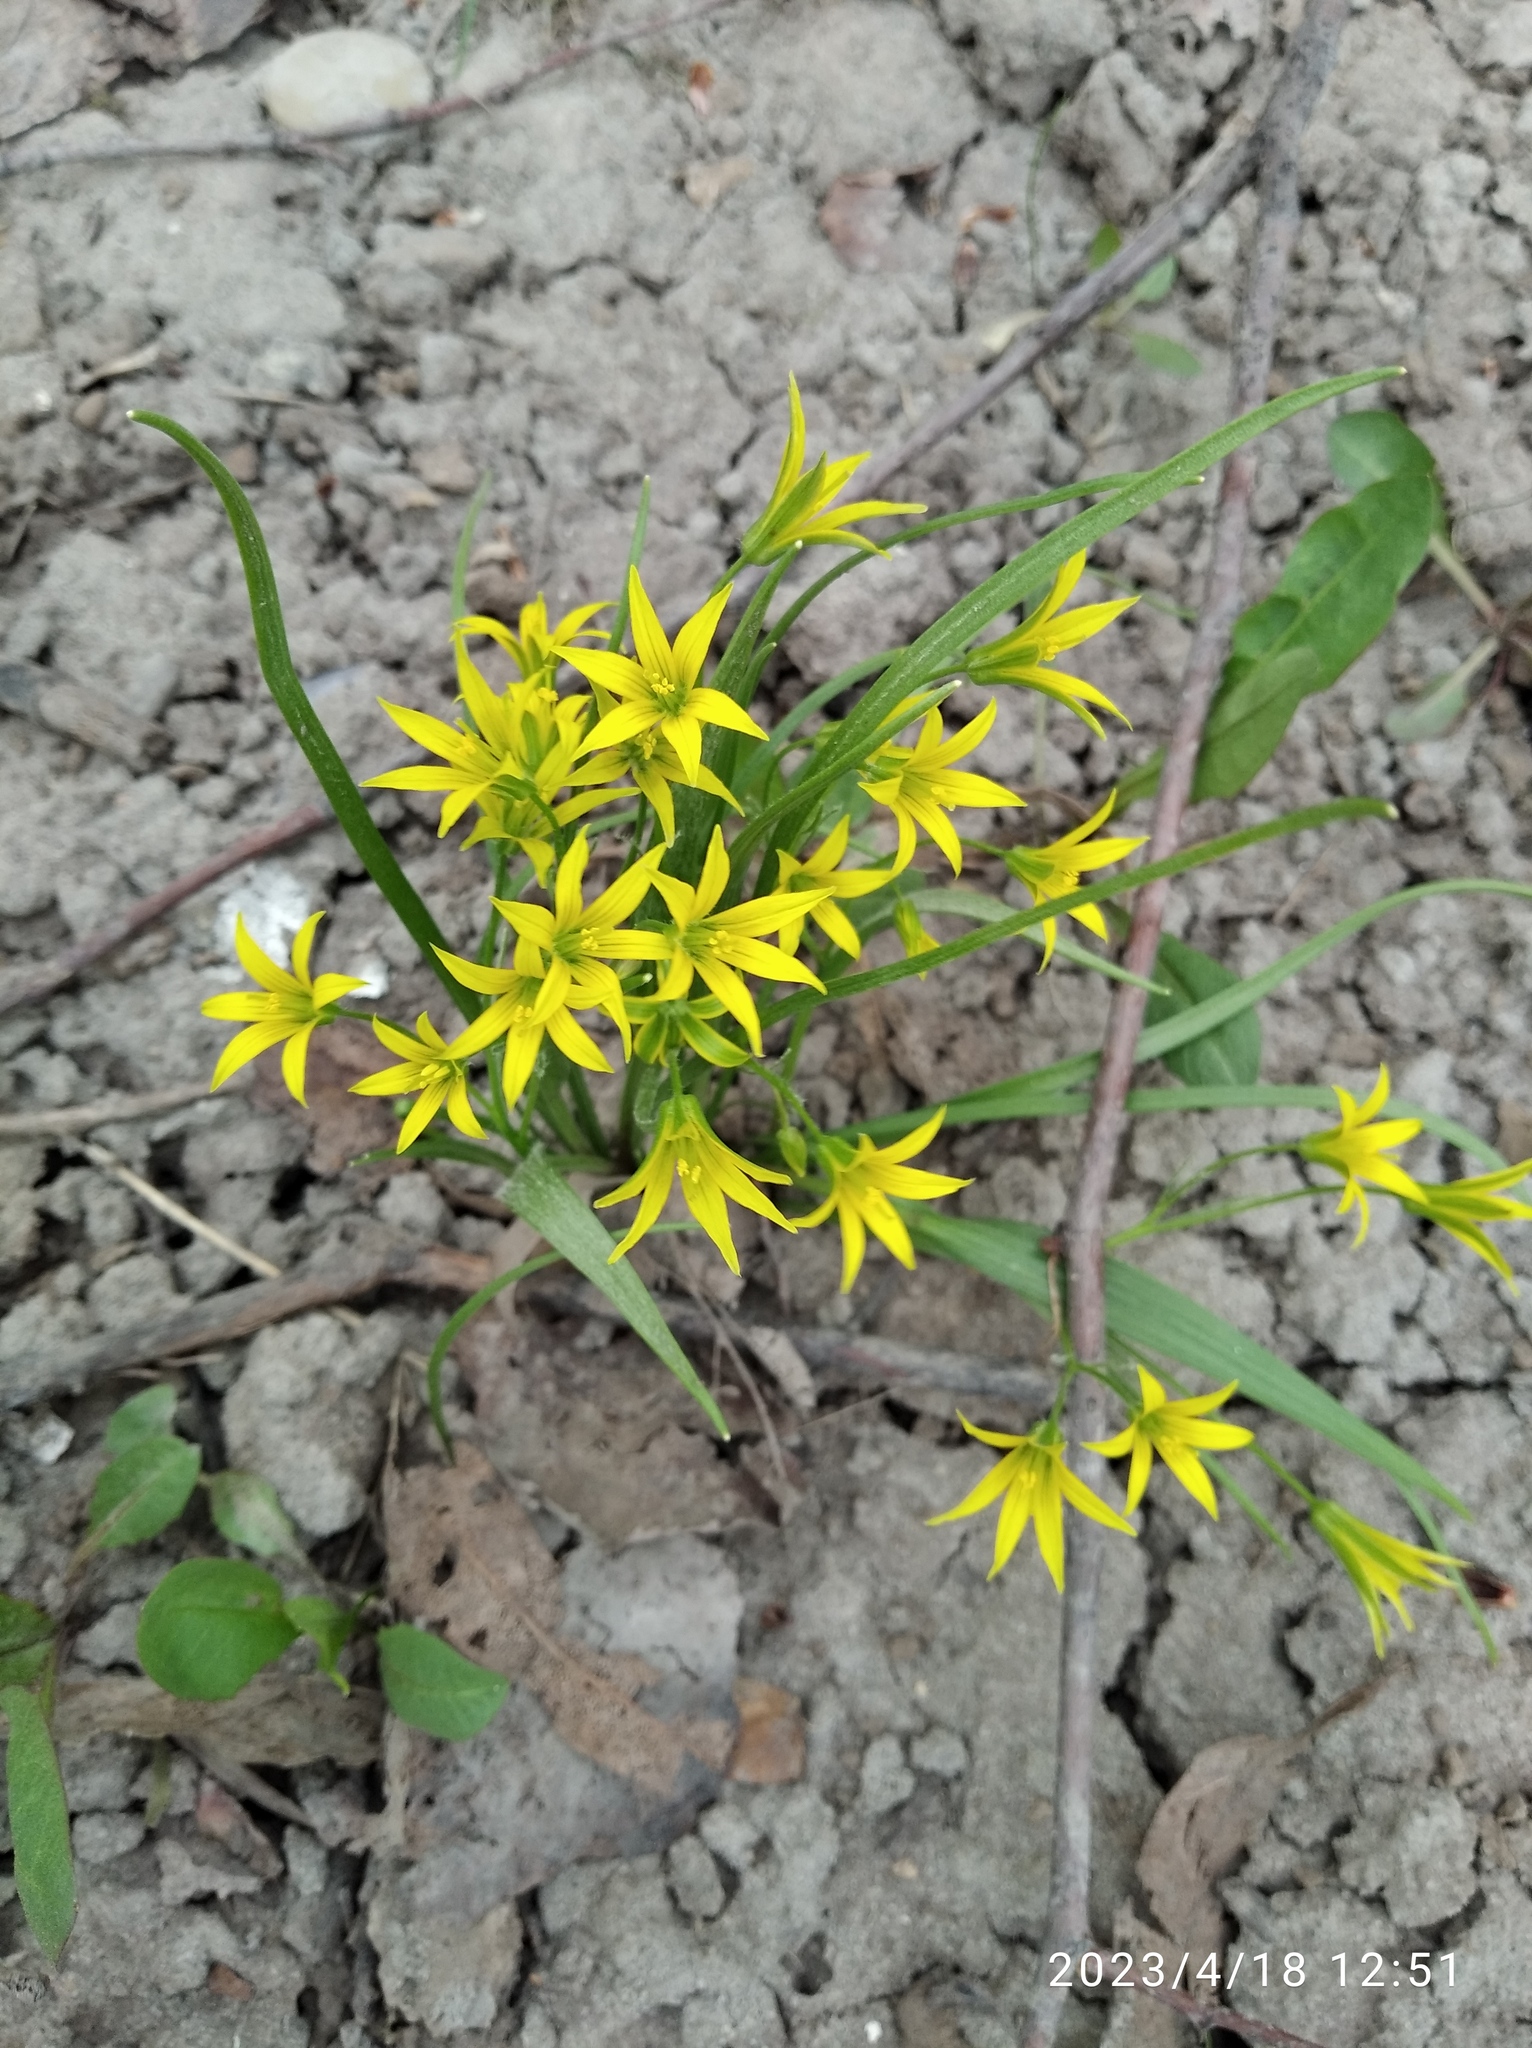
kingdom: Plantae
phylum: Tracheophyta
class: Liliopsida
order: Liliales
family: Liliaceae
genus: Gagea
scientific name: Gagea minima
